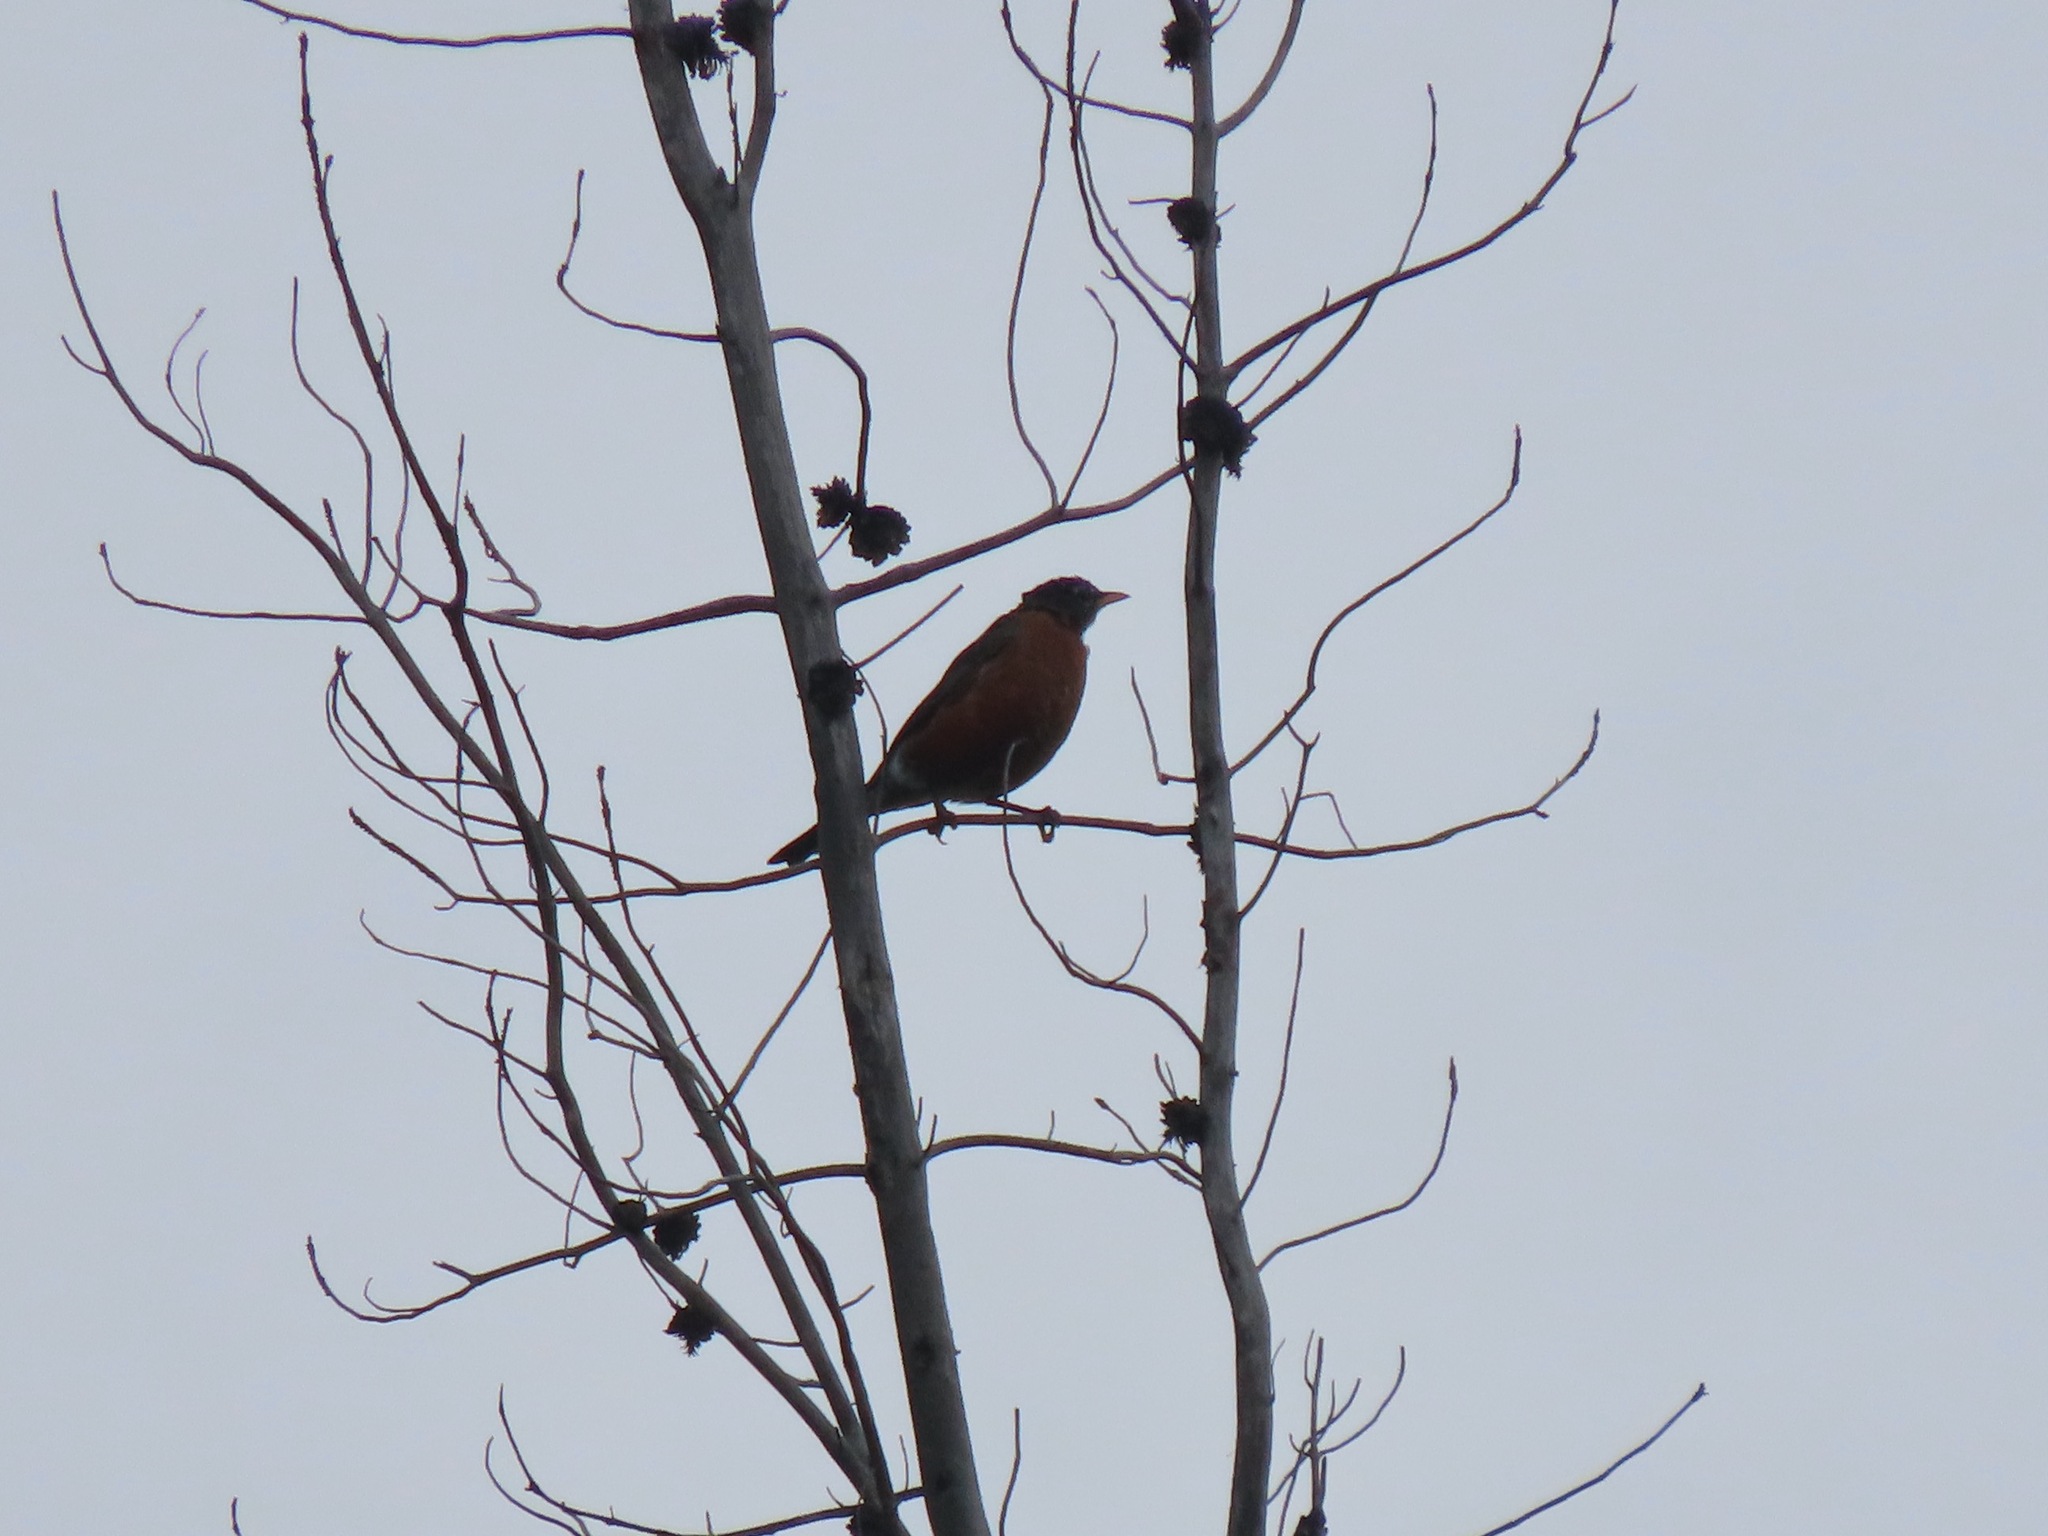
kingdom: Animalia
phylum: Chordata
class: Aves
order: Passeriformes
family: Turdidae
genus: Turdus
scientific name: Turdus migratorius
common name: American robin
